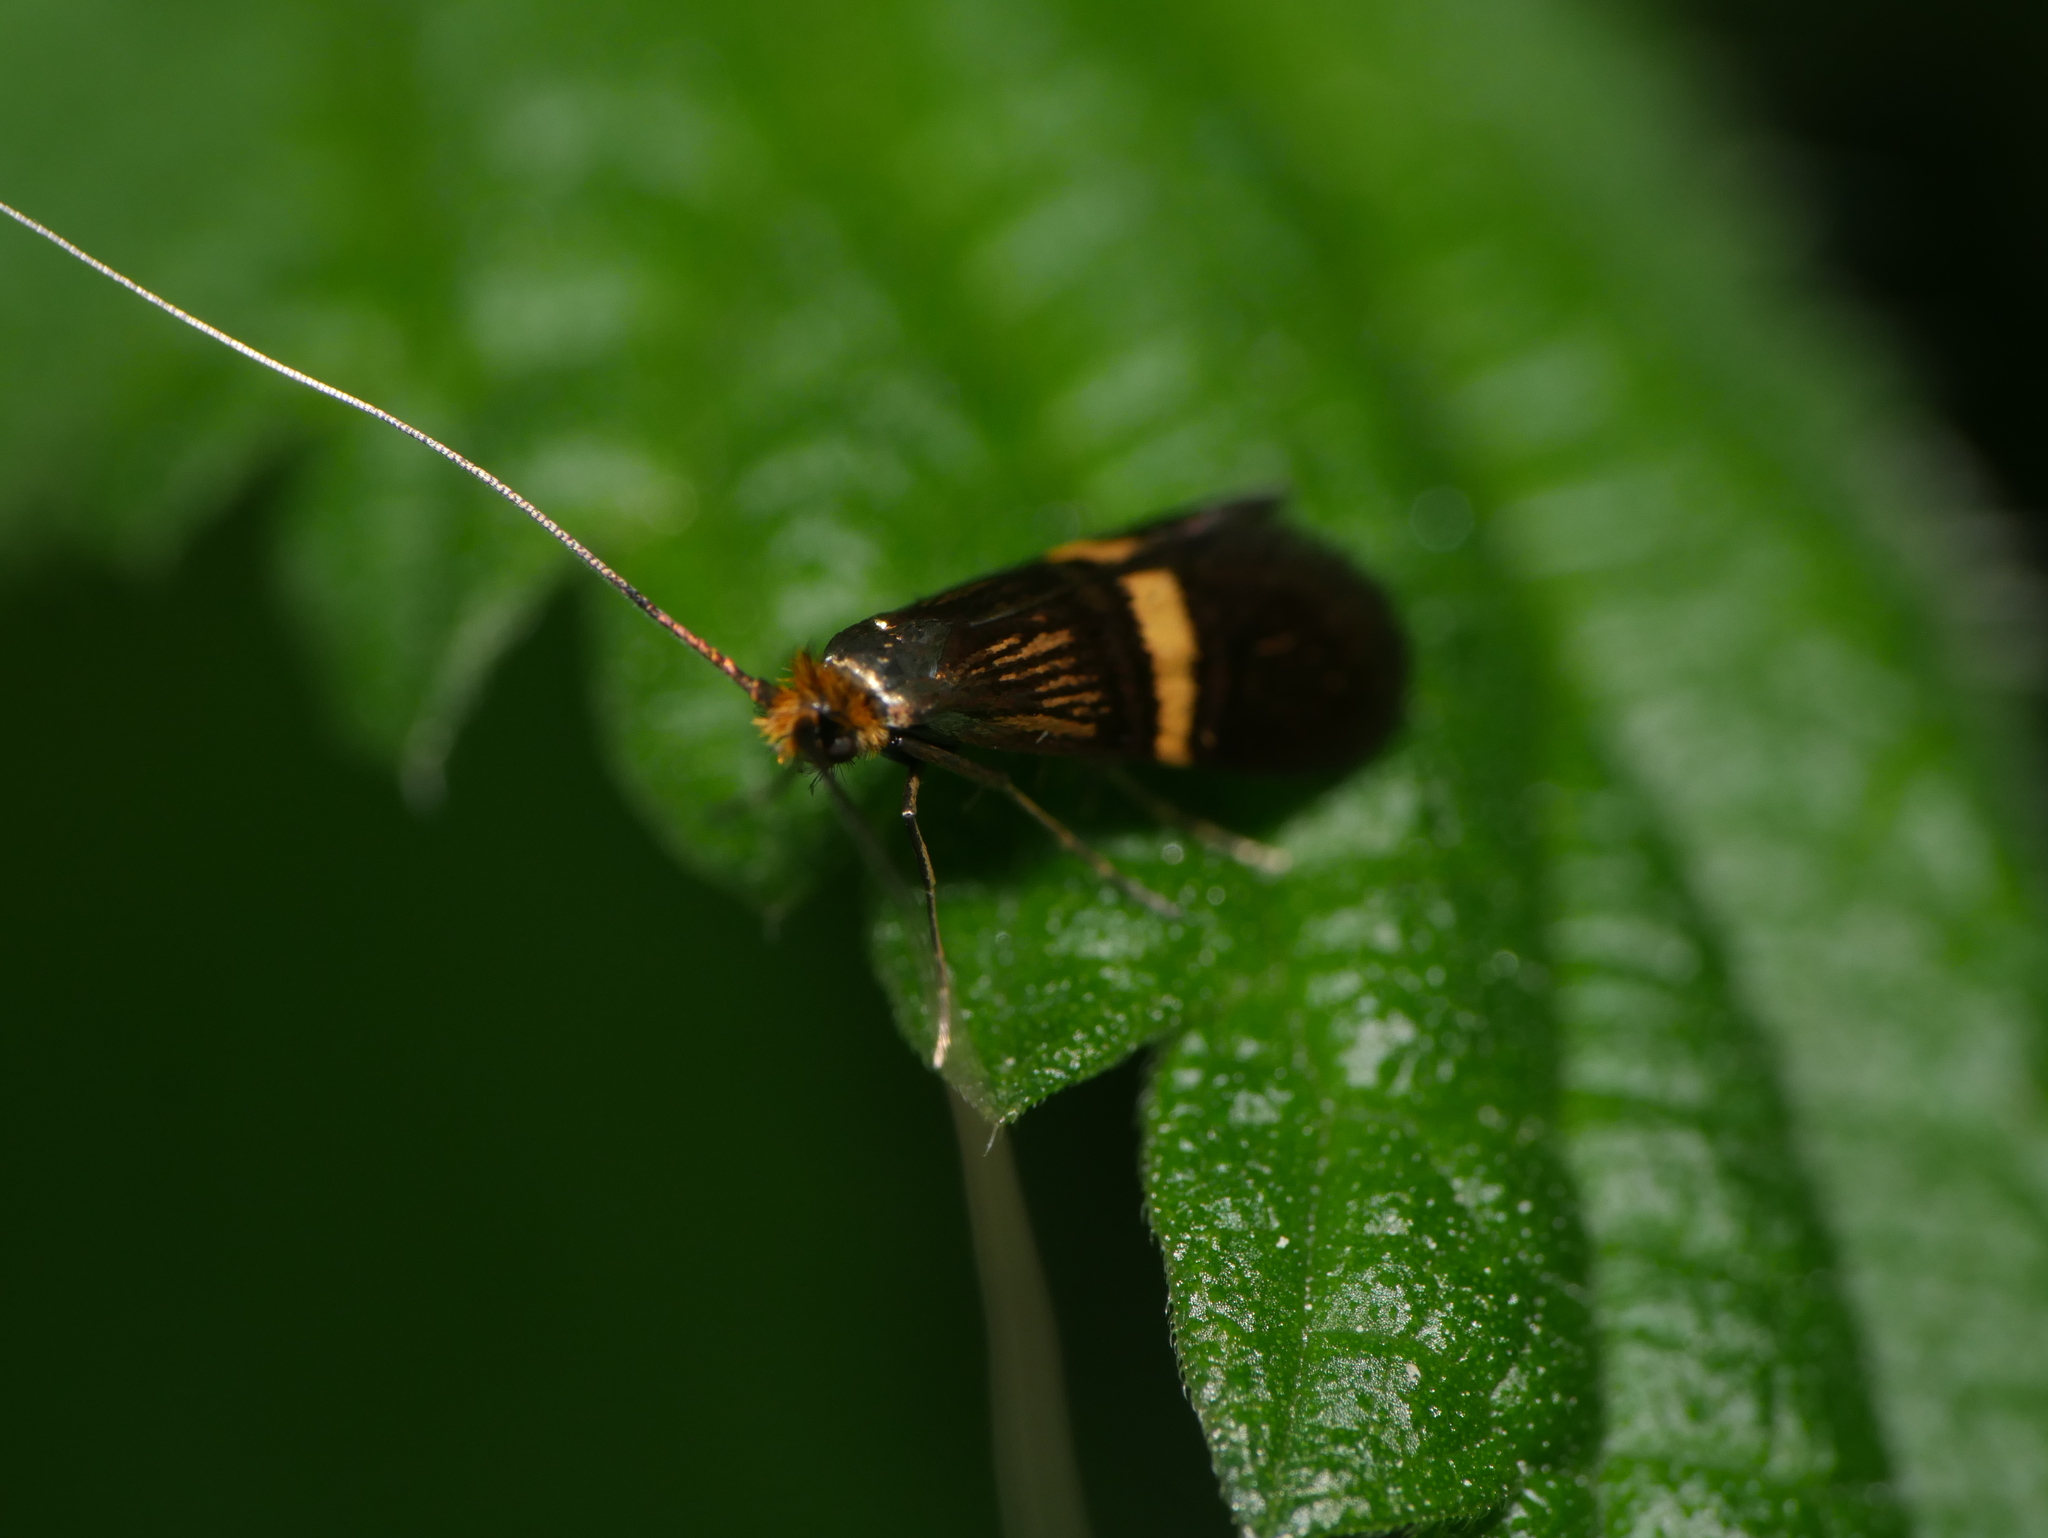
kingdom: Animalia
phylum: Arthropoda
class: Insecta
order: Lepidoptera
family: Adelidae
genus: Adela
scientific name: Adela croesella
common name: Small barred long-horn
